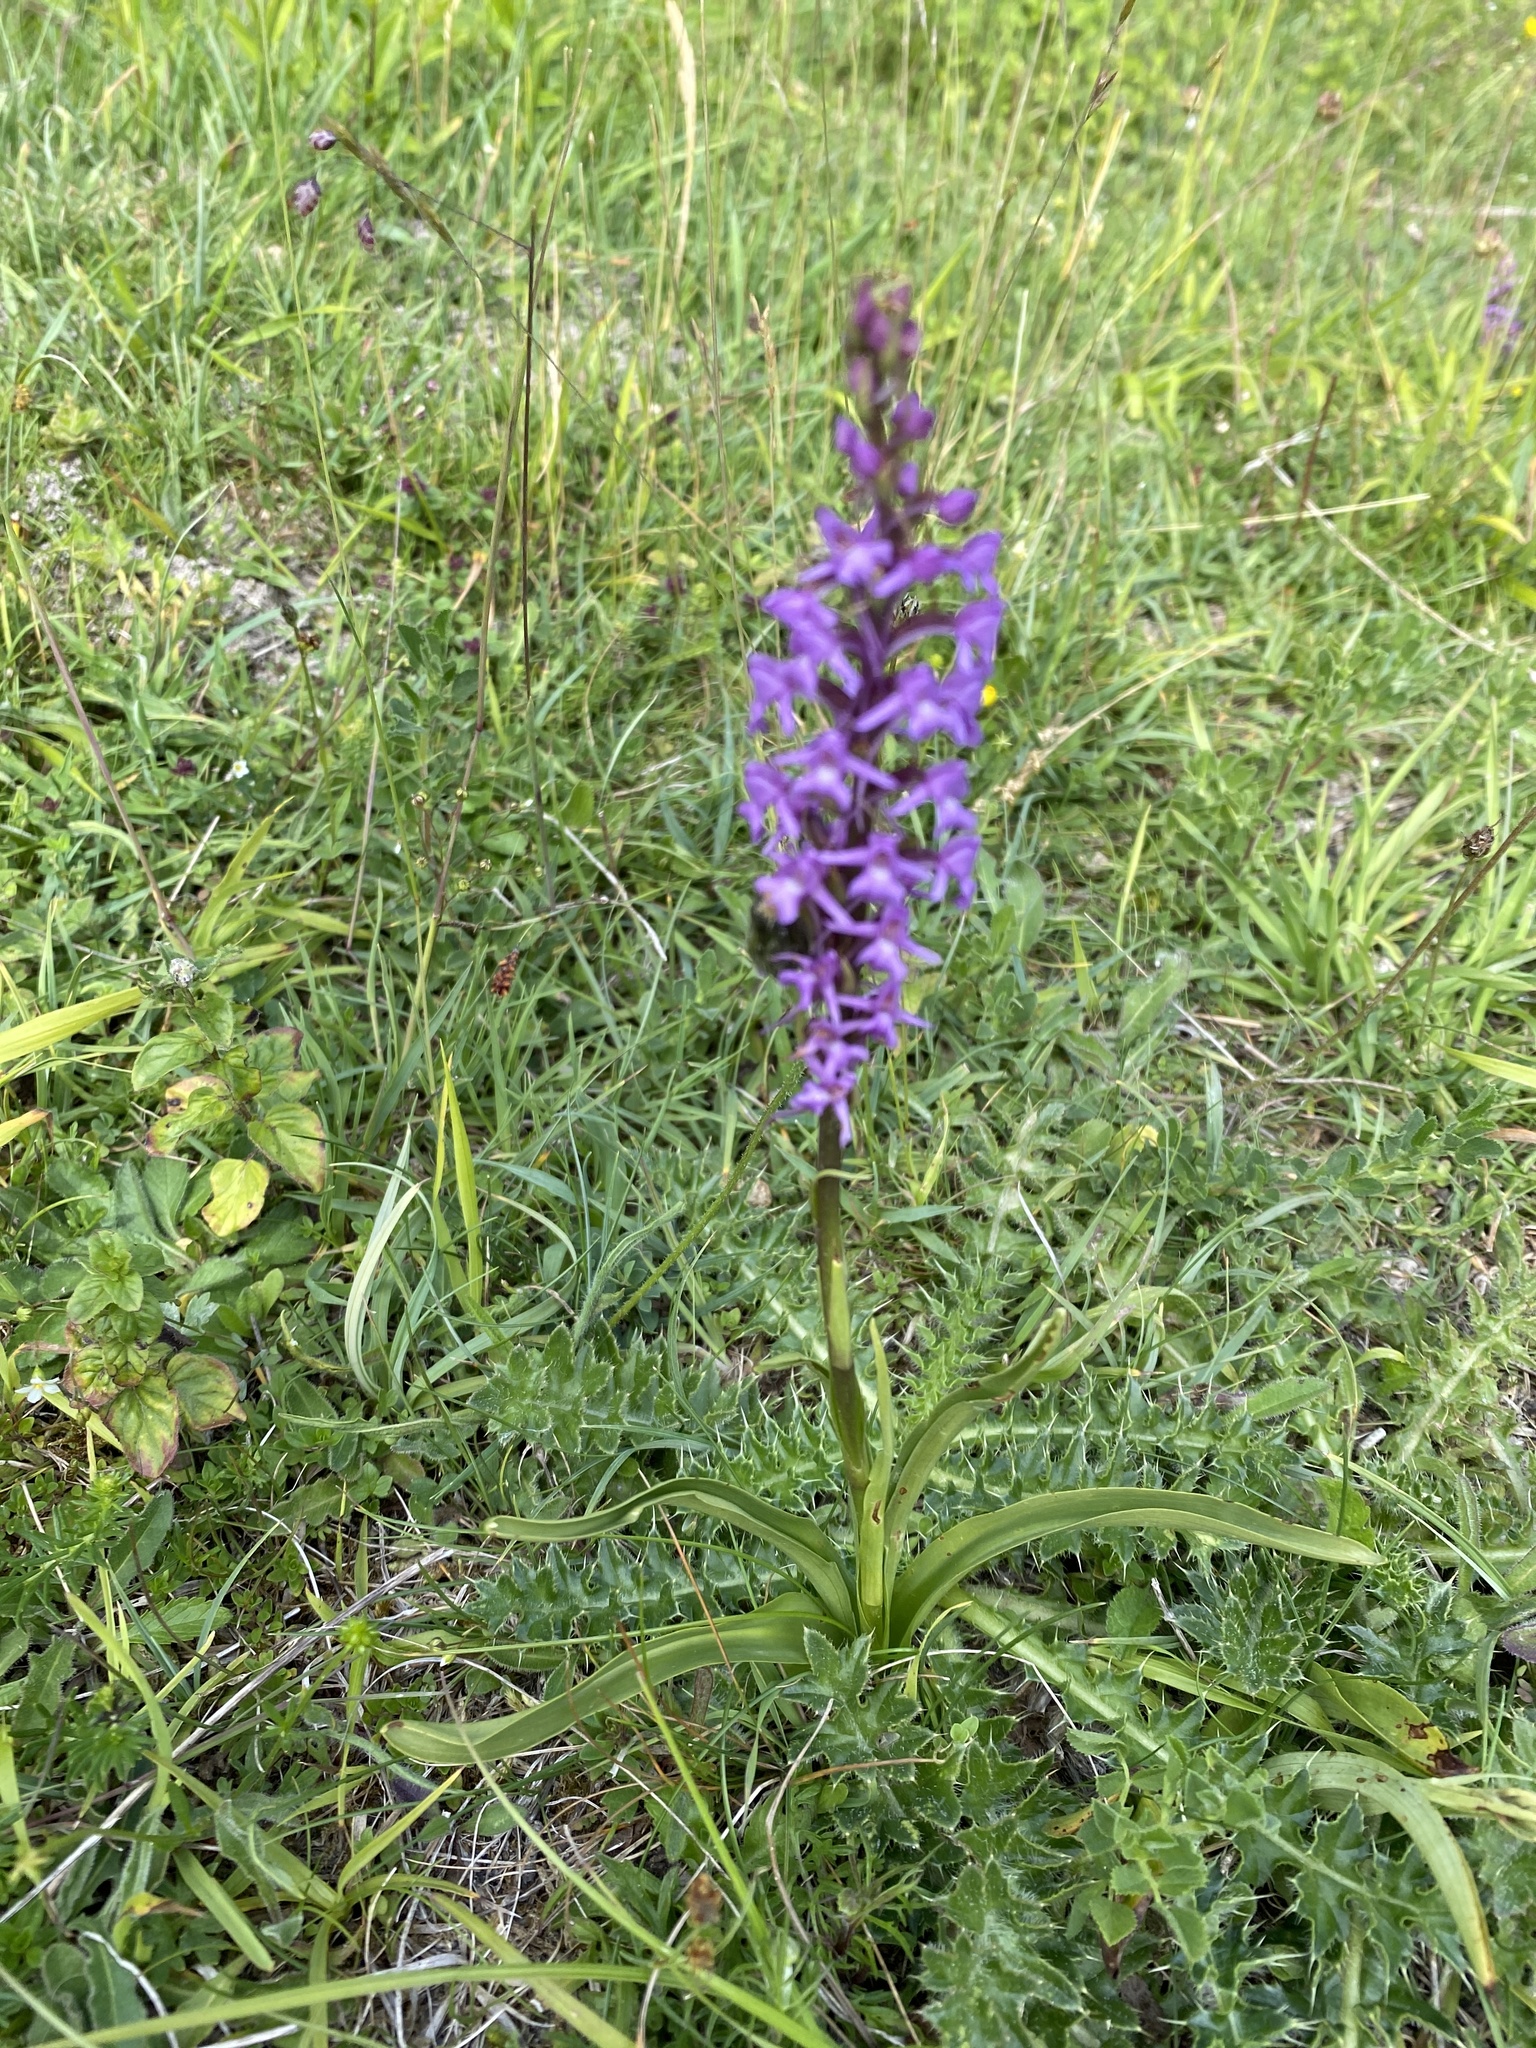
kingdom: Plantae
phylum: Tracheophyta
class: Liliopsida
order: Asparagales
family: Orchidaceae
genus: Gymnadenia
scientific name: Gymnadenia conopsea
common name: Fragrant orchid
